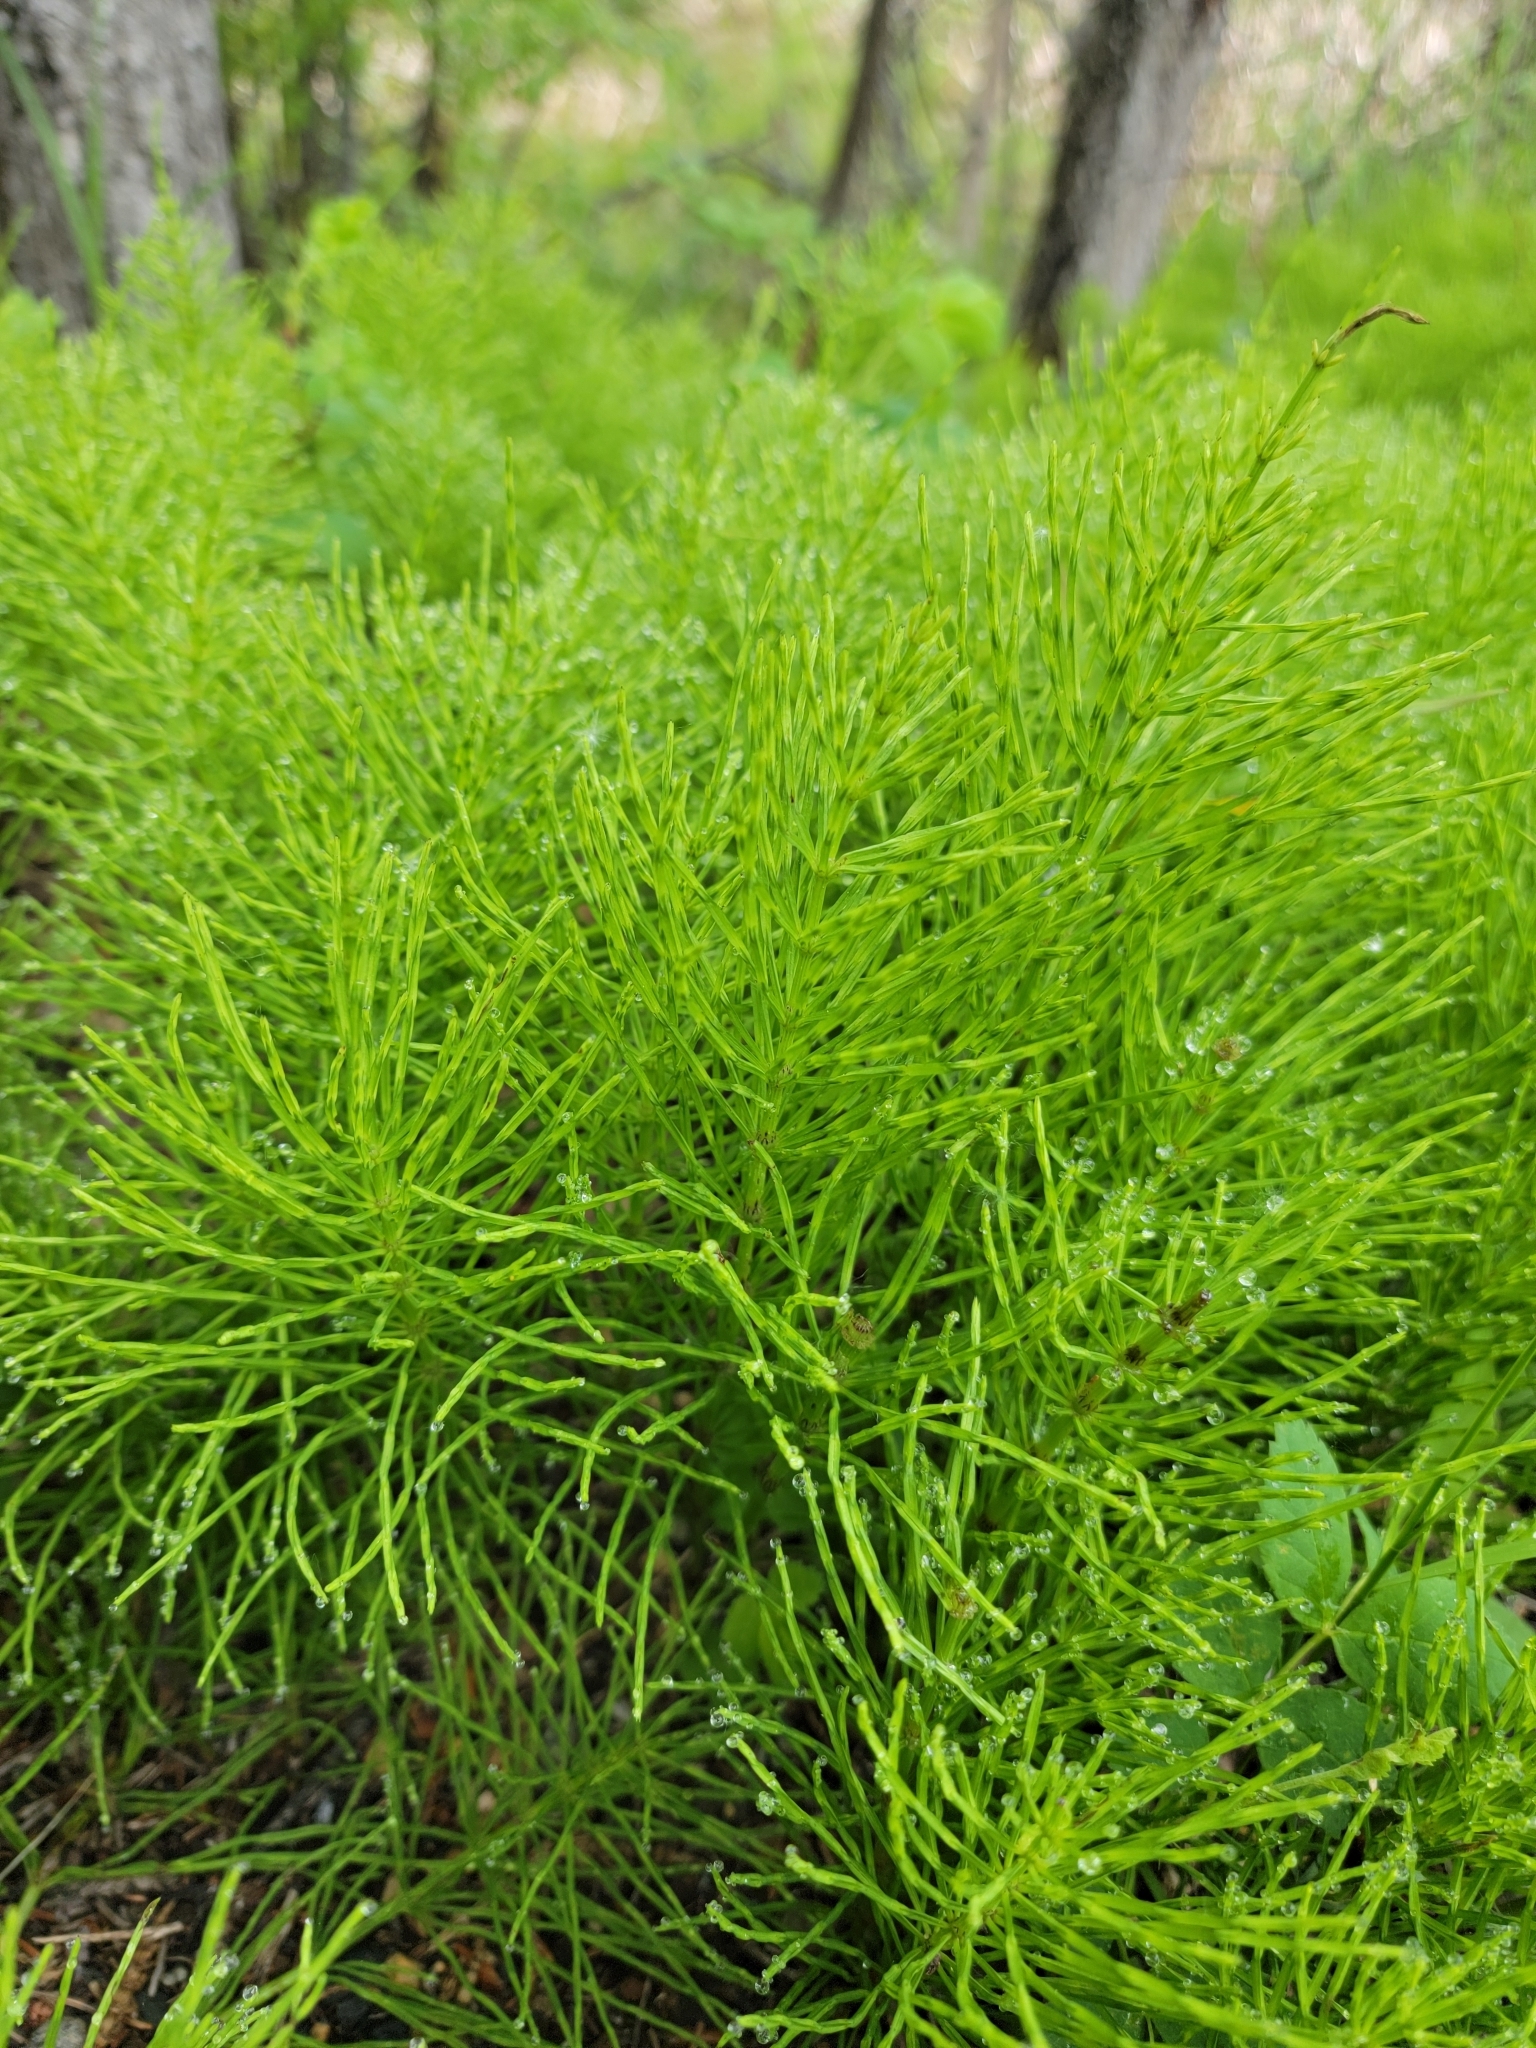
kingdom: Plantae
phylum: Tracheophyta
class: Polypodiopsida
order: Equisetales
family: Equisetaceae
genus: Equisetum
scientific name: Equisetum arvense
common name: Field horsetail
